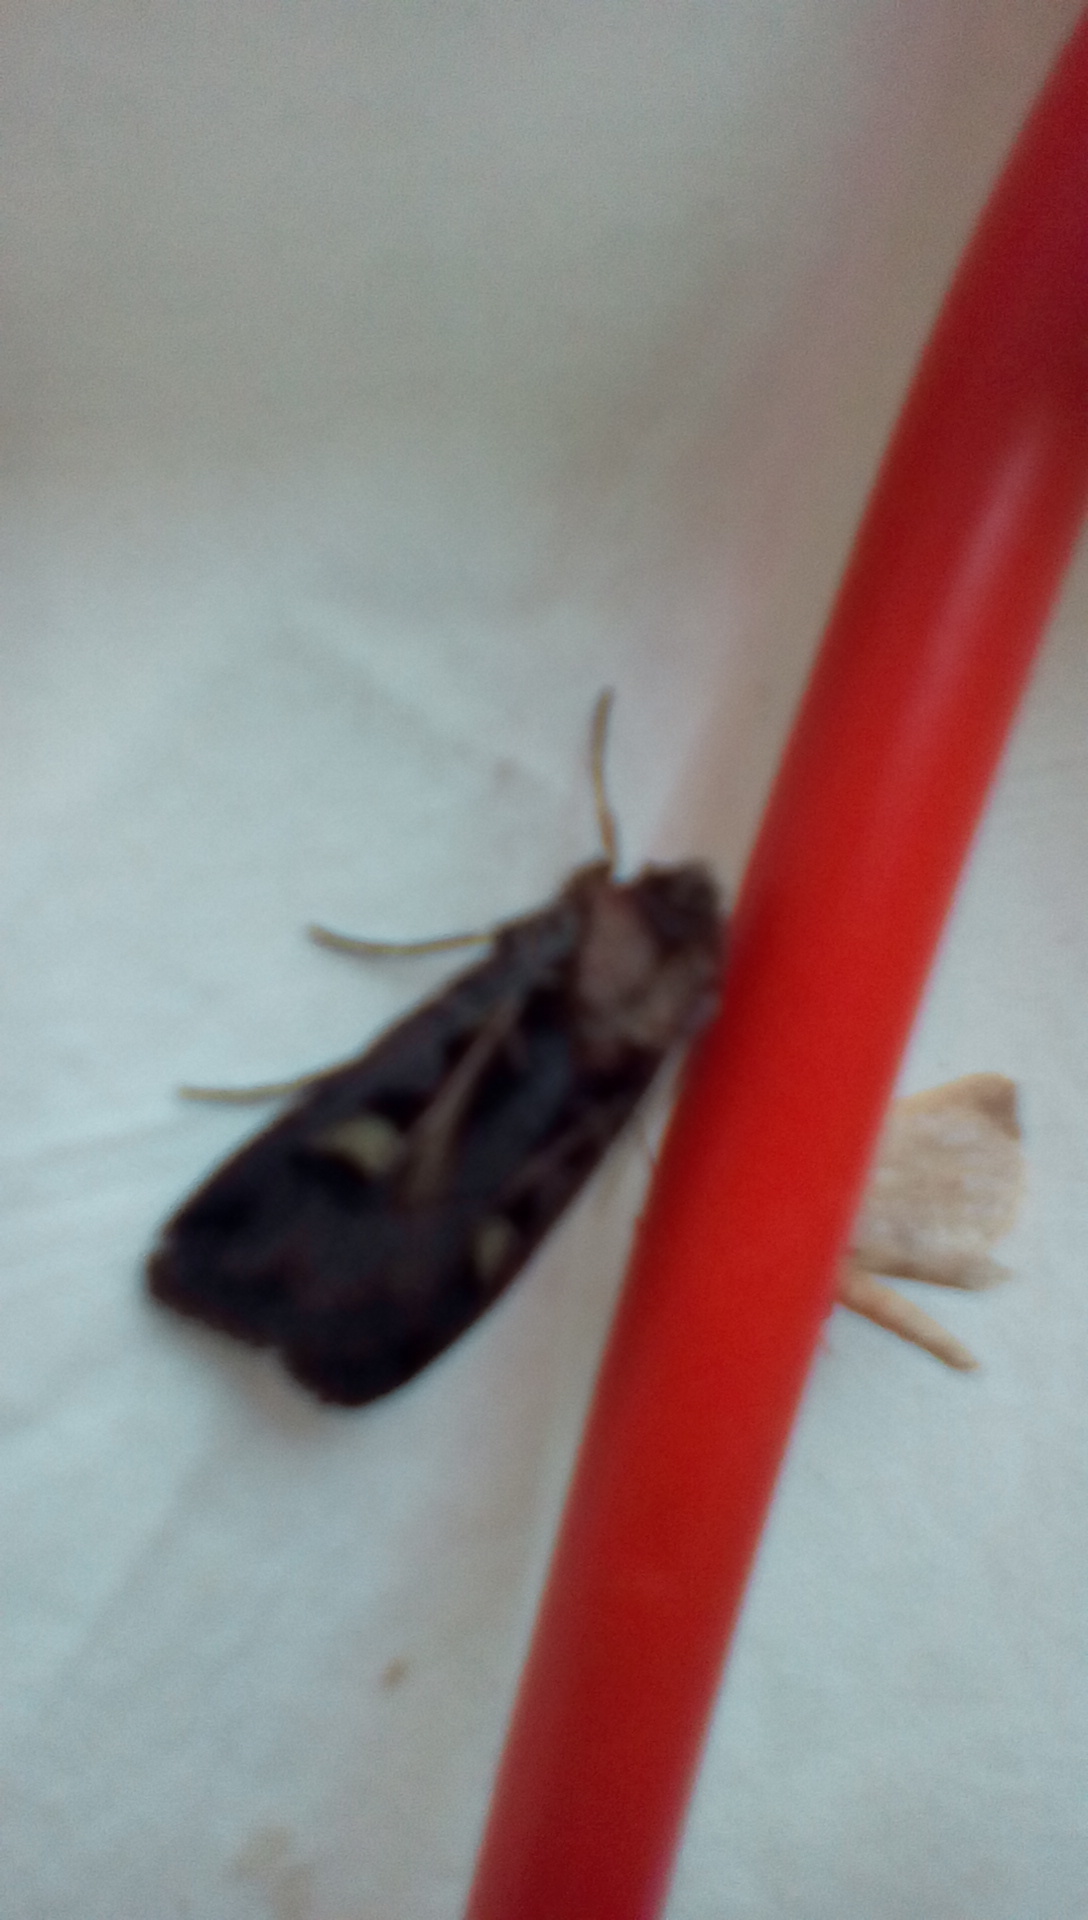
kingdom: Animalia
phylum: Arthropoda
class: Insecta
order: Lepidoptera
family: Noctuidae
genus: Feltia
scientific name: Feltia herilis
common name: Master's dart
